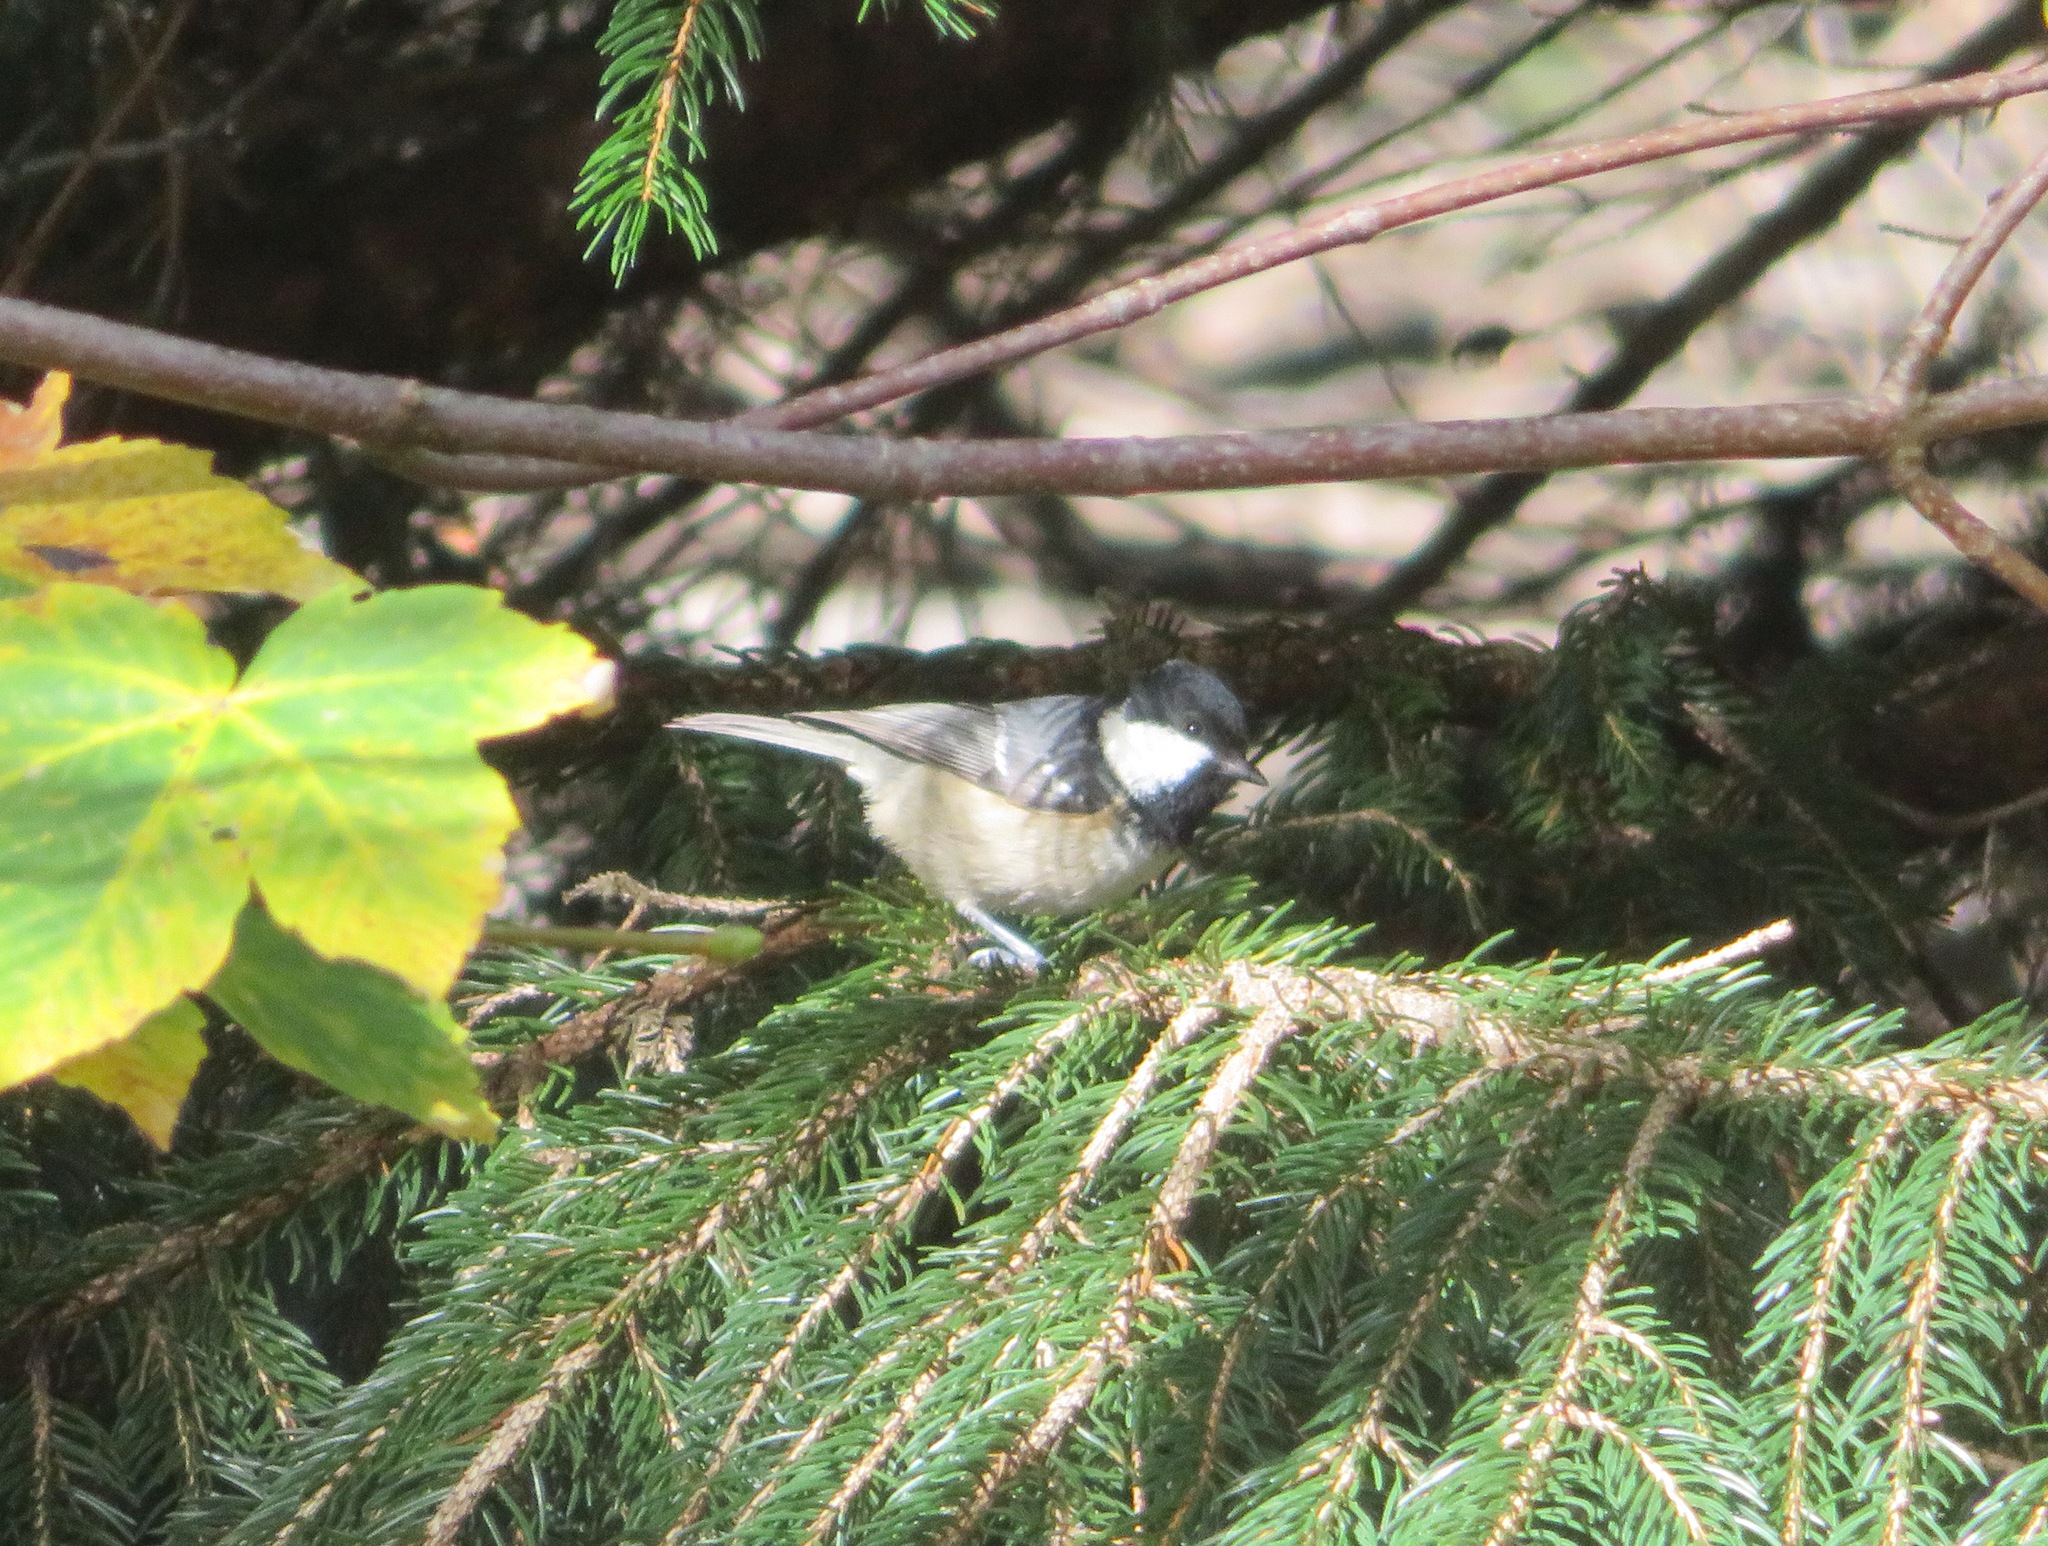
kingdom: Animalia
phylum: Chordata
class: Aves
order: Passeriformes
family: Paridae
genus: Periparus
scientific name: Periparus ater
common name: Coal tit
